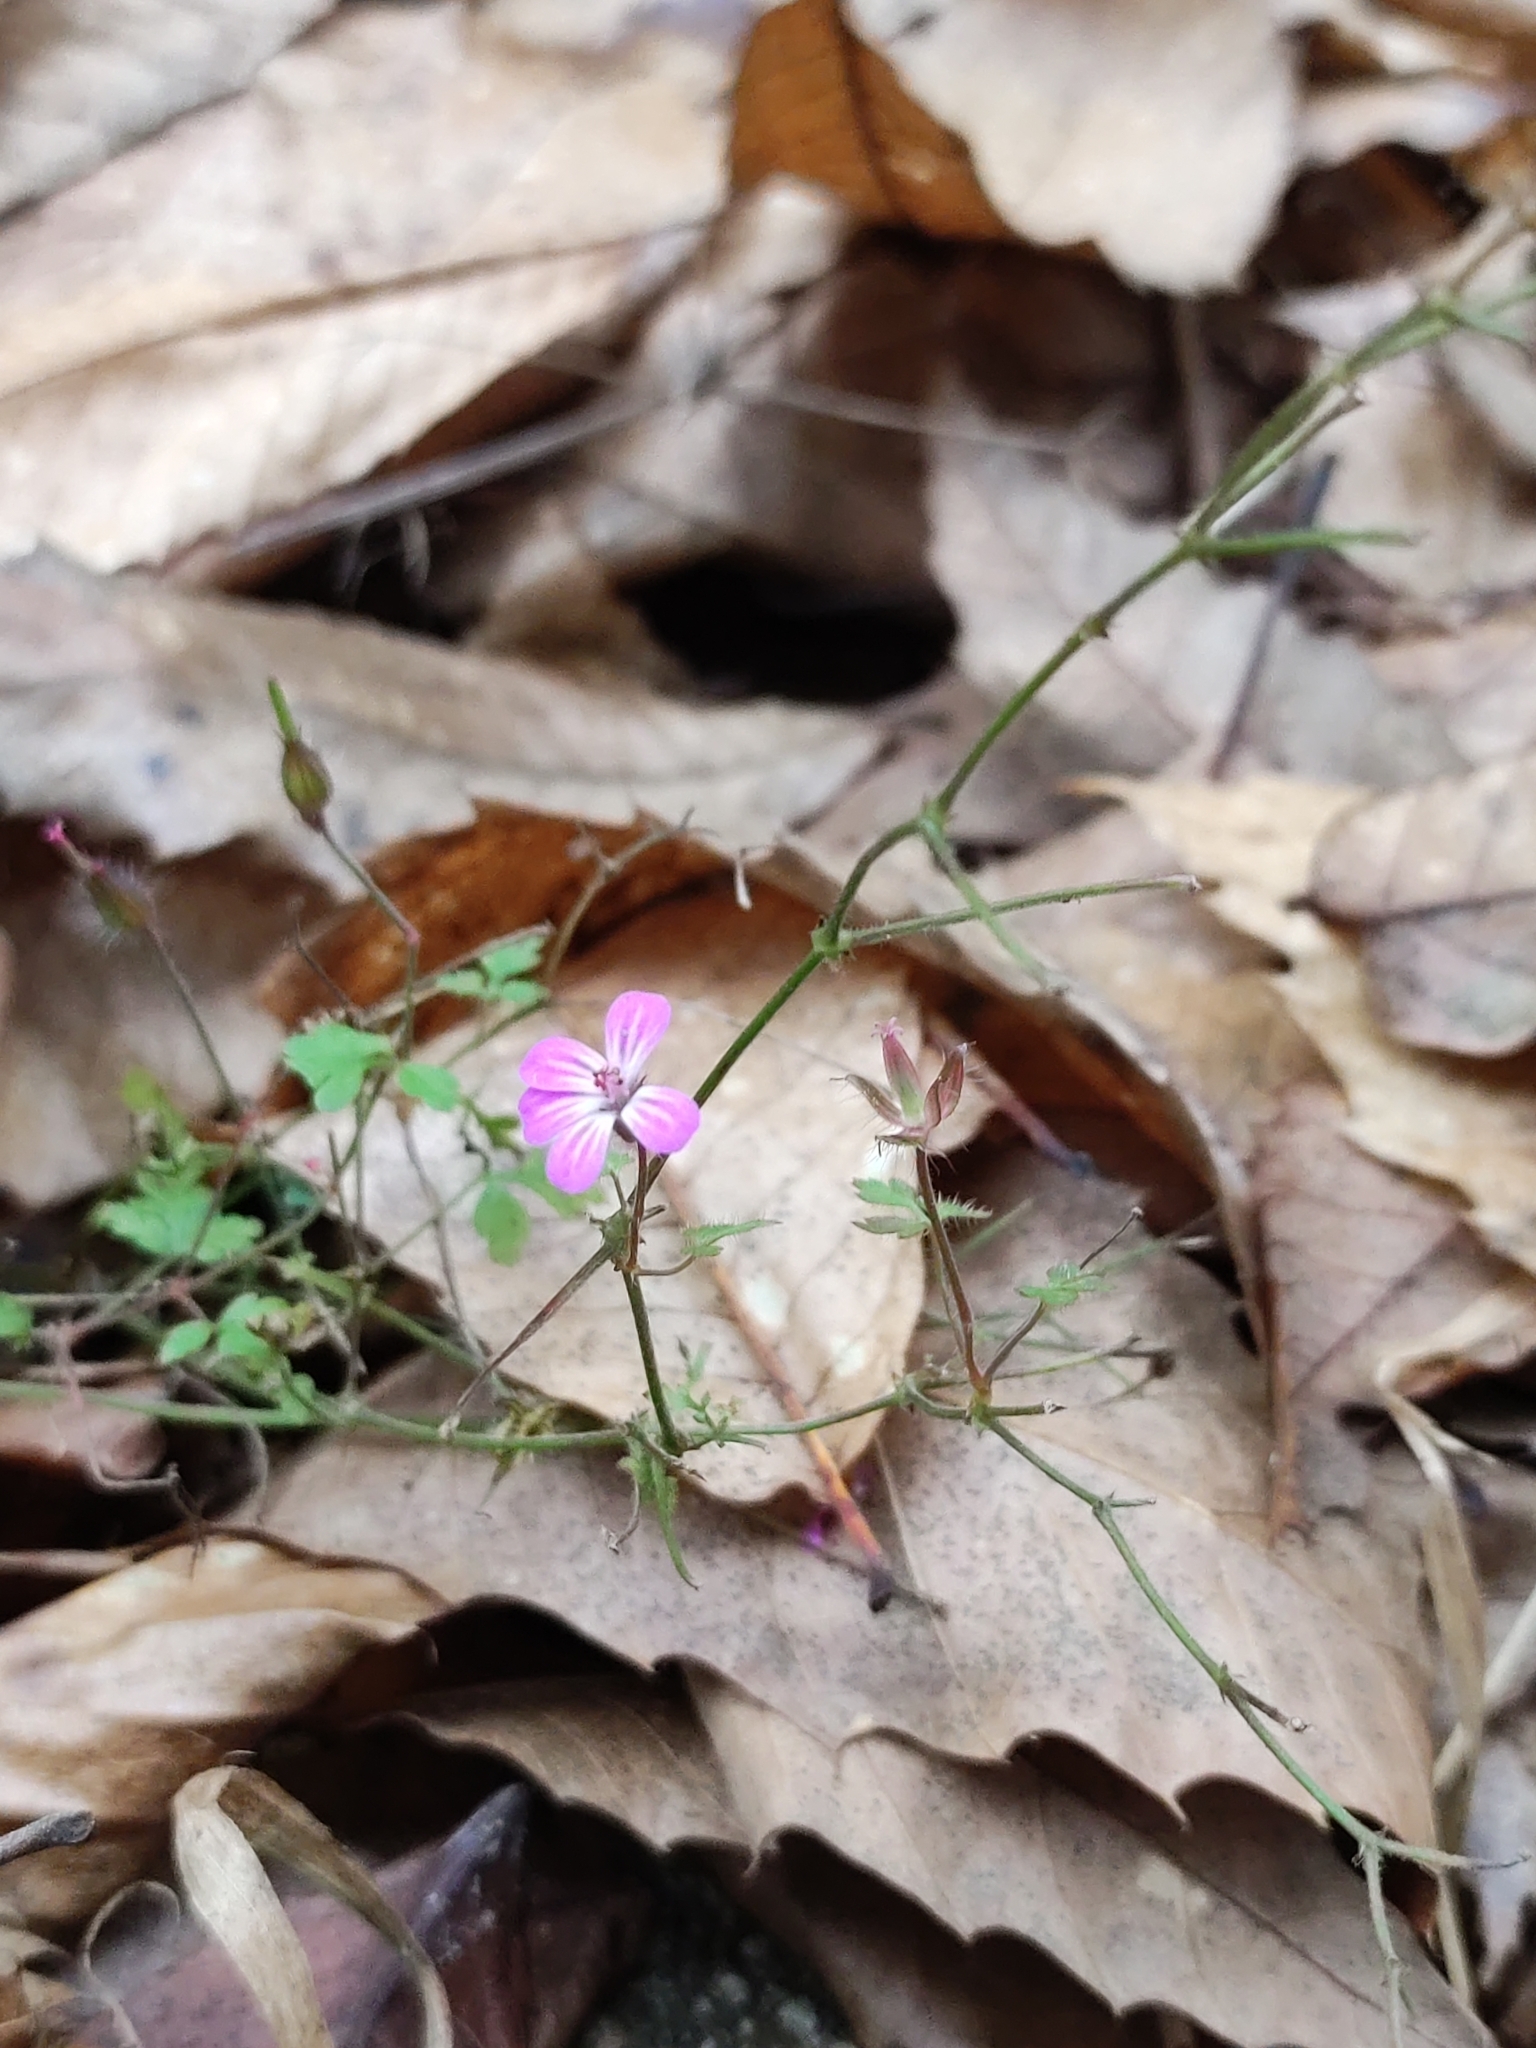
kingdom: Plantae
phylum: Tracheophyta
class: Magnoliopsida
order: Geraniales
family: Geraniaceae
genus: Geranium
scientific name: Geranium robertianum
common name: Herb-robert
